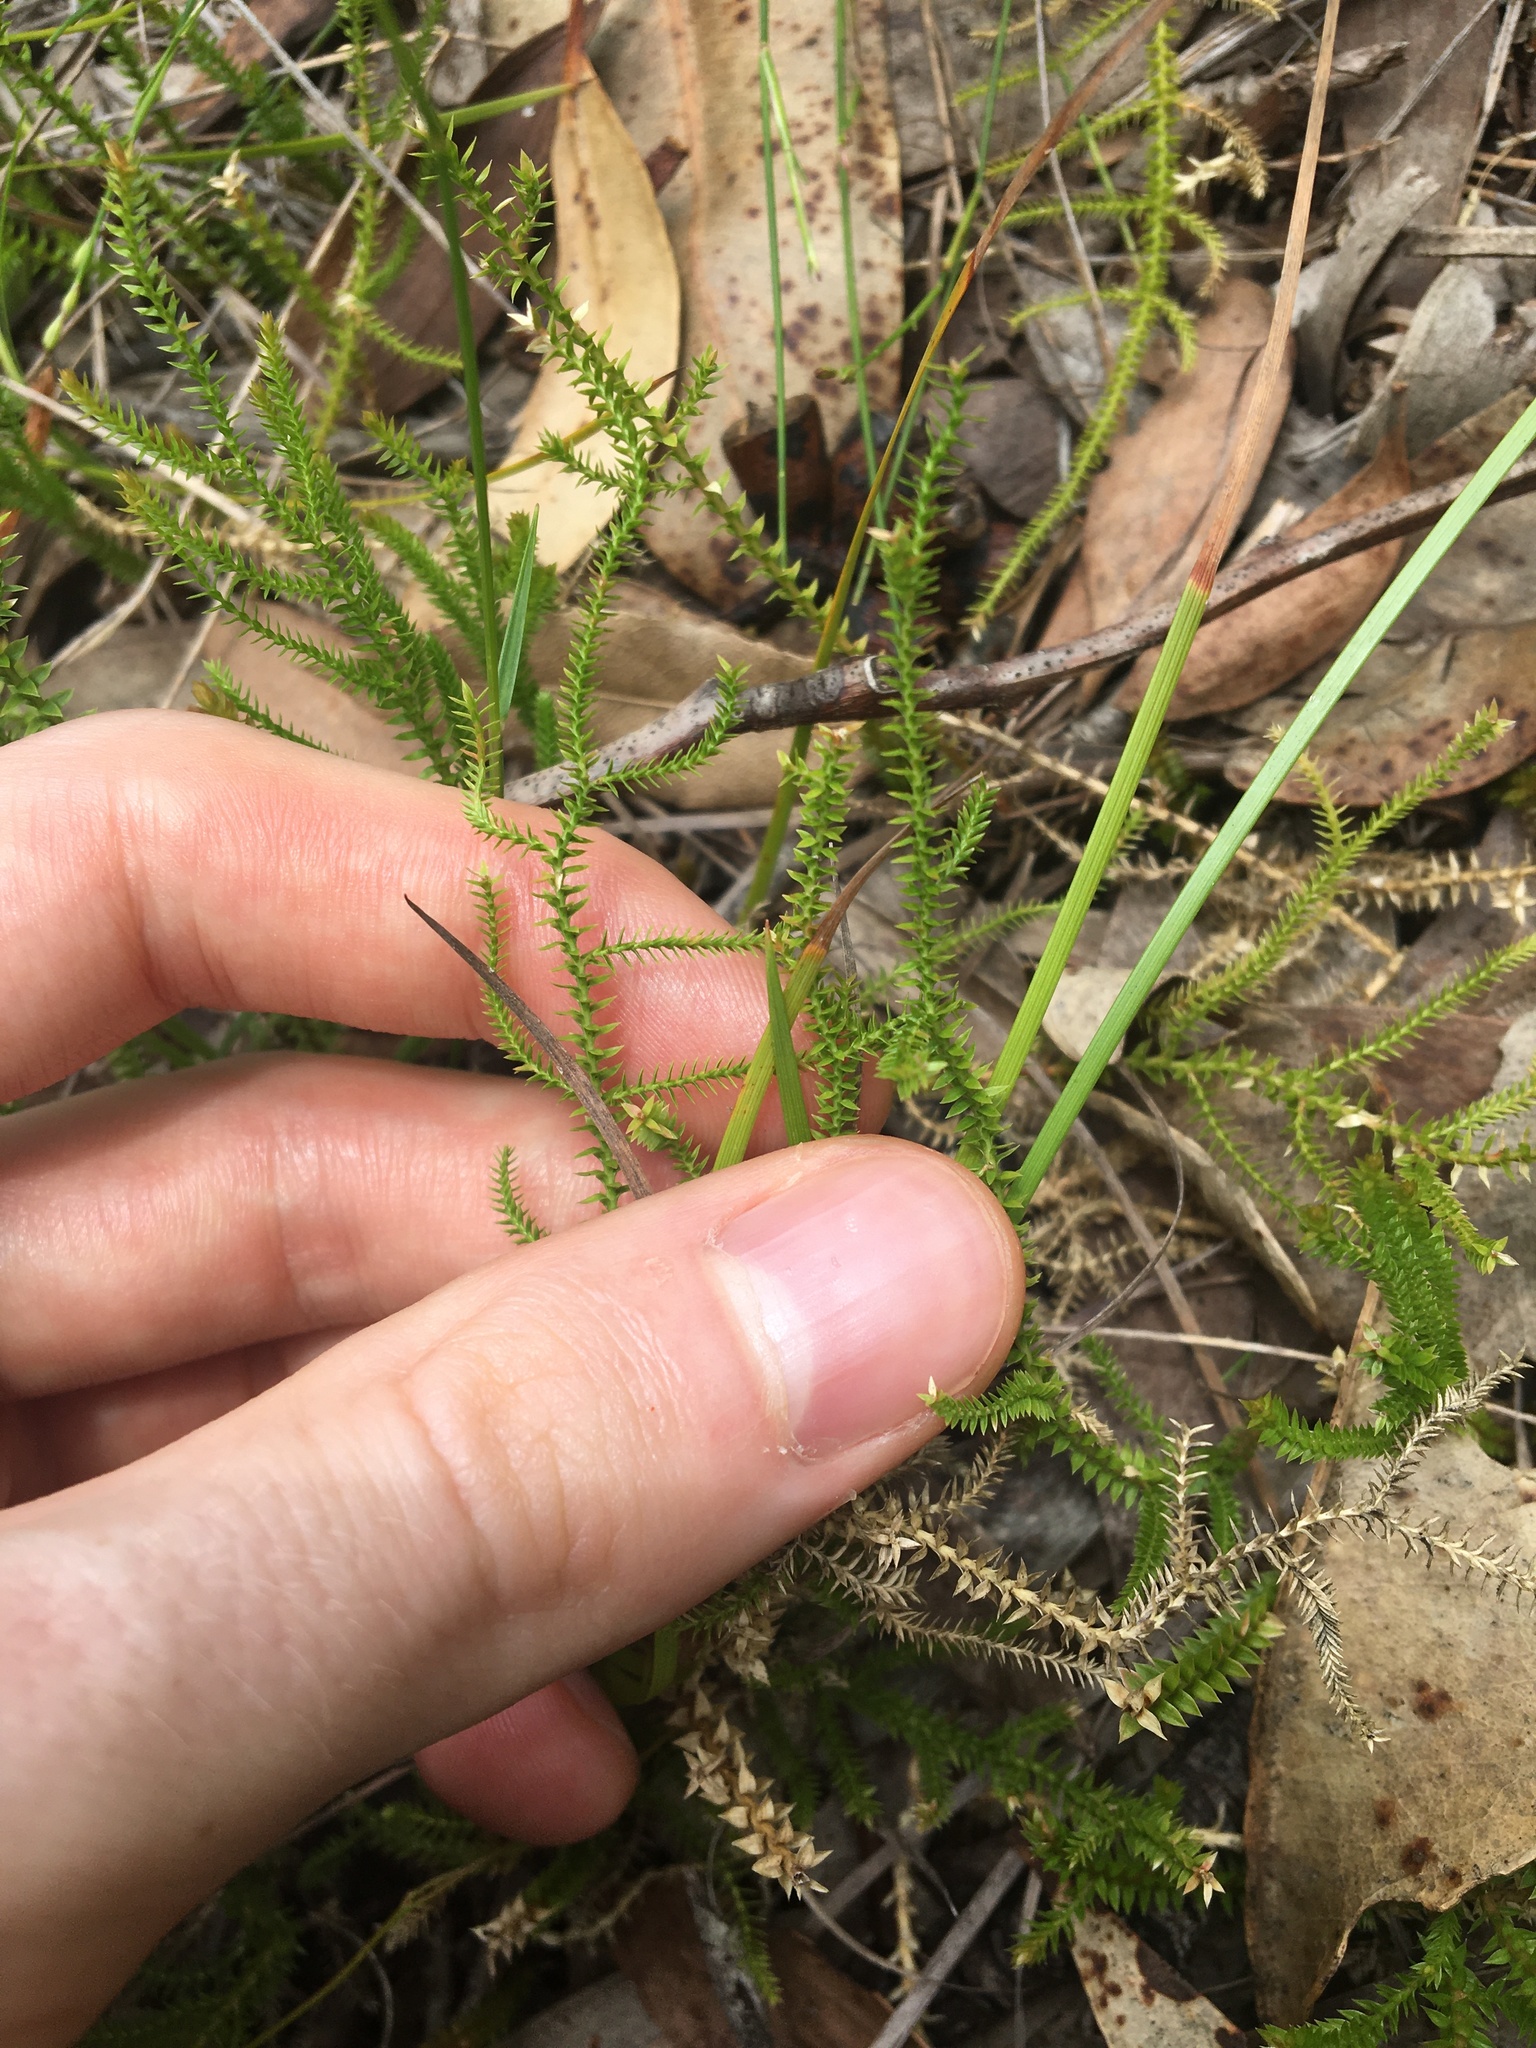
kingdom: Plantae
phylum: Tracheophyta
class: Lycopodiopsida
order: Selaginellales
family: Selaginellaceae
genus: Selaginella
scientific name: Selaginella uliginosa
